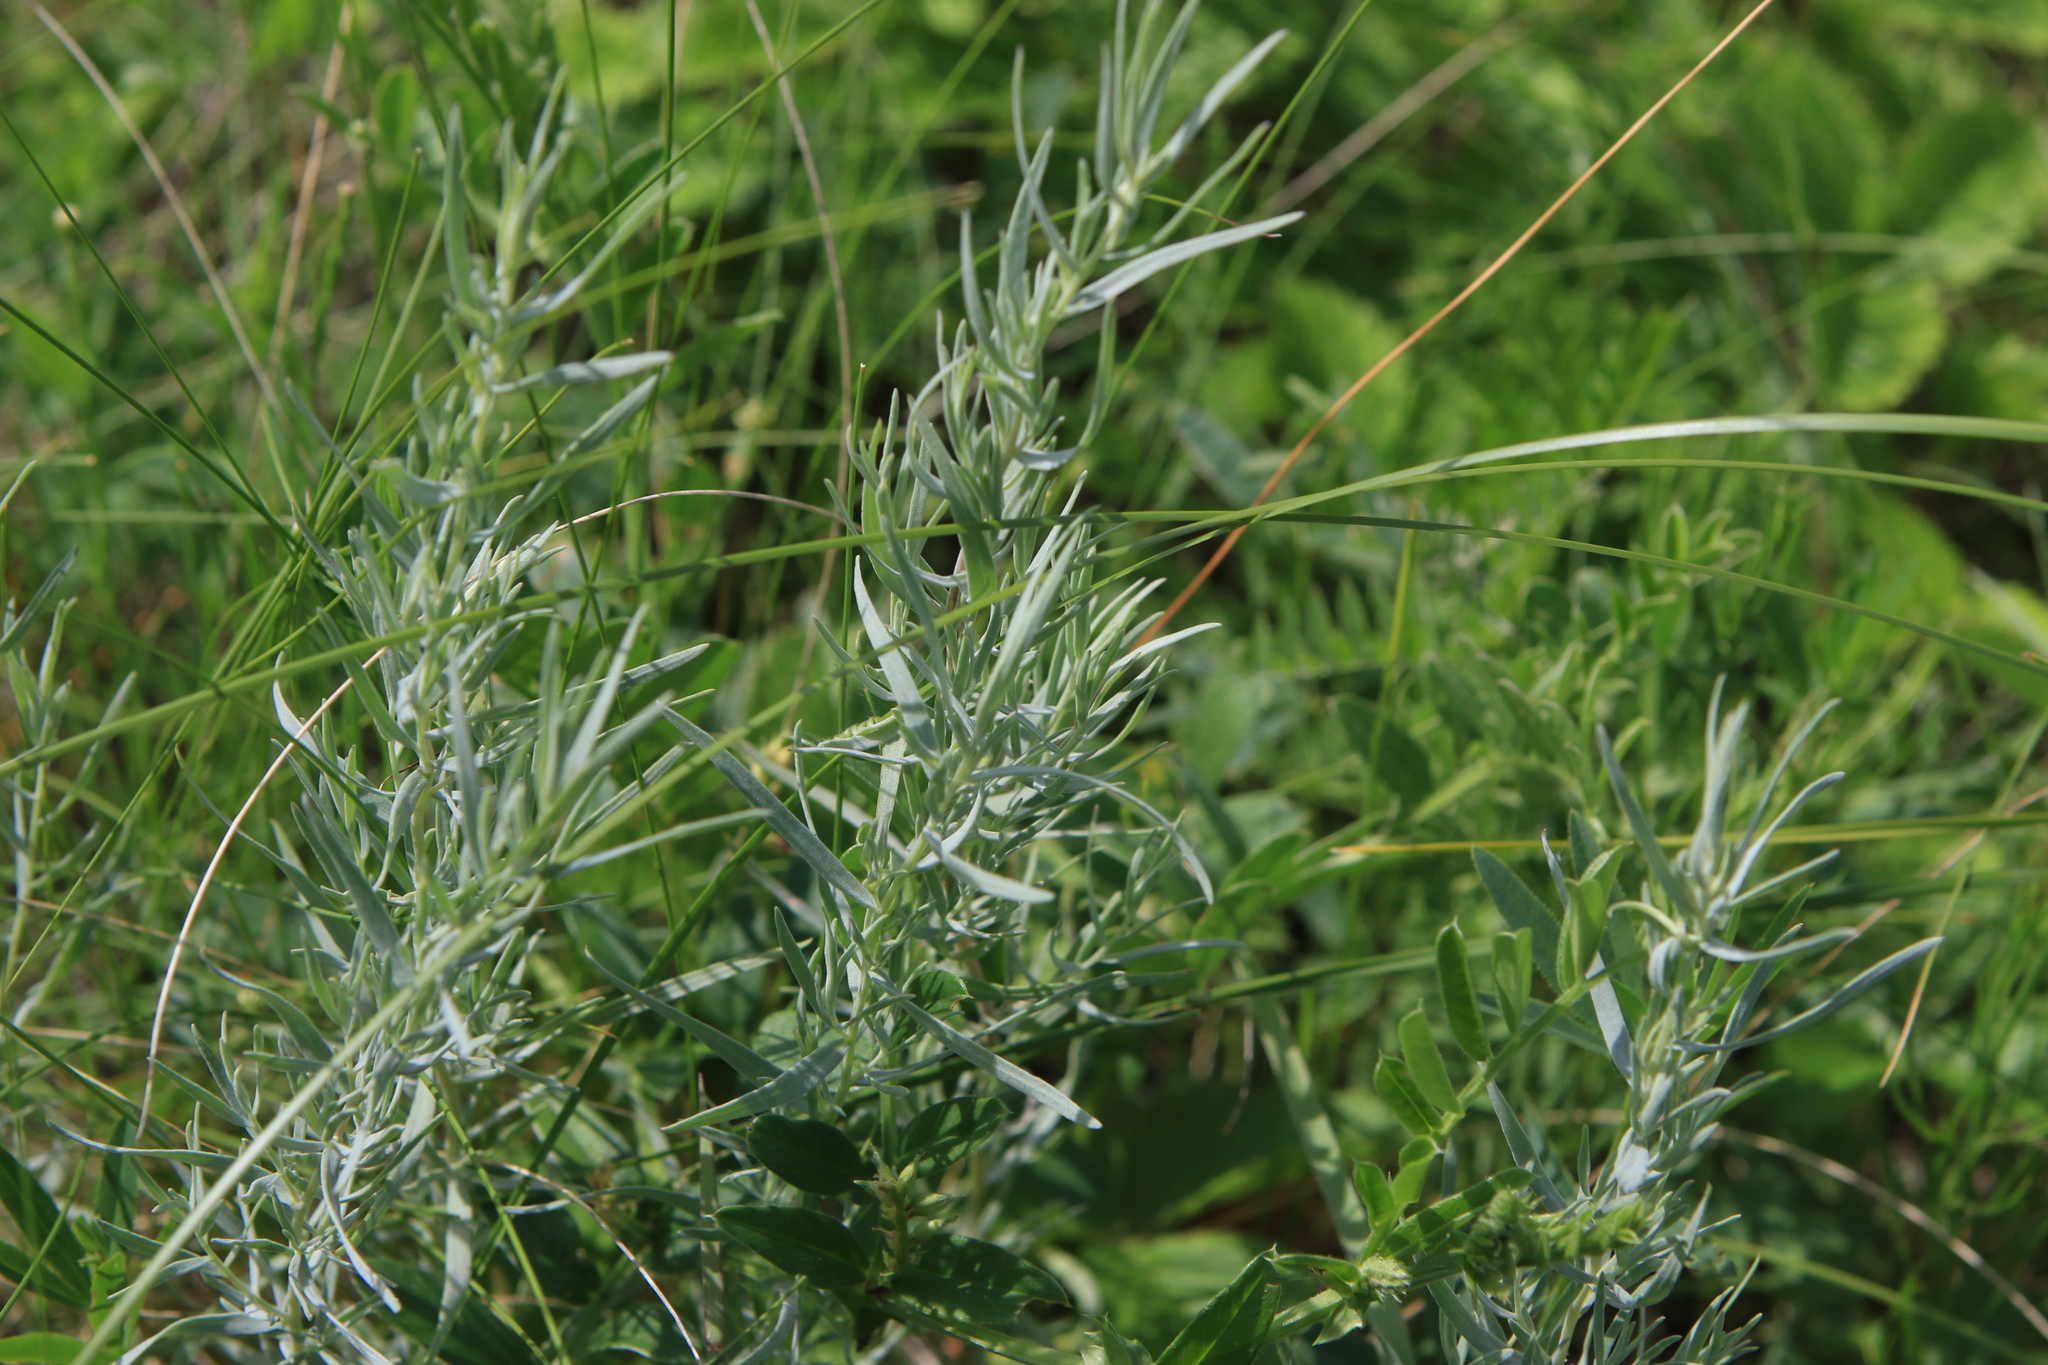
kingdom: Plantae
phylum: Tracheophyta
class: Magnoliopsida
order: Asterales
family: Asteraceae
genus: Artemisia
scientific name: Artemisia glauca
